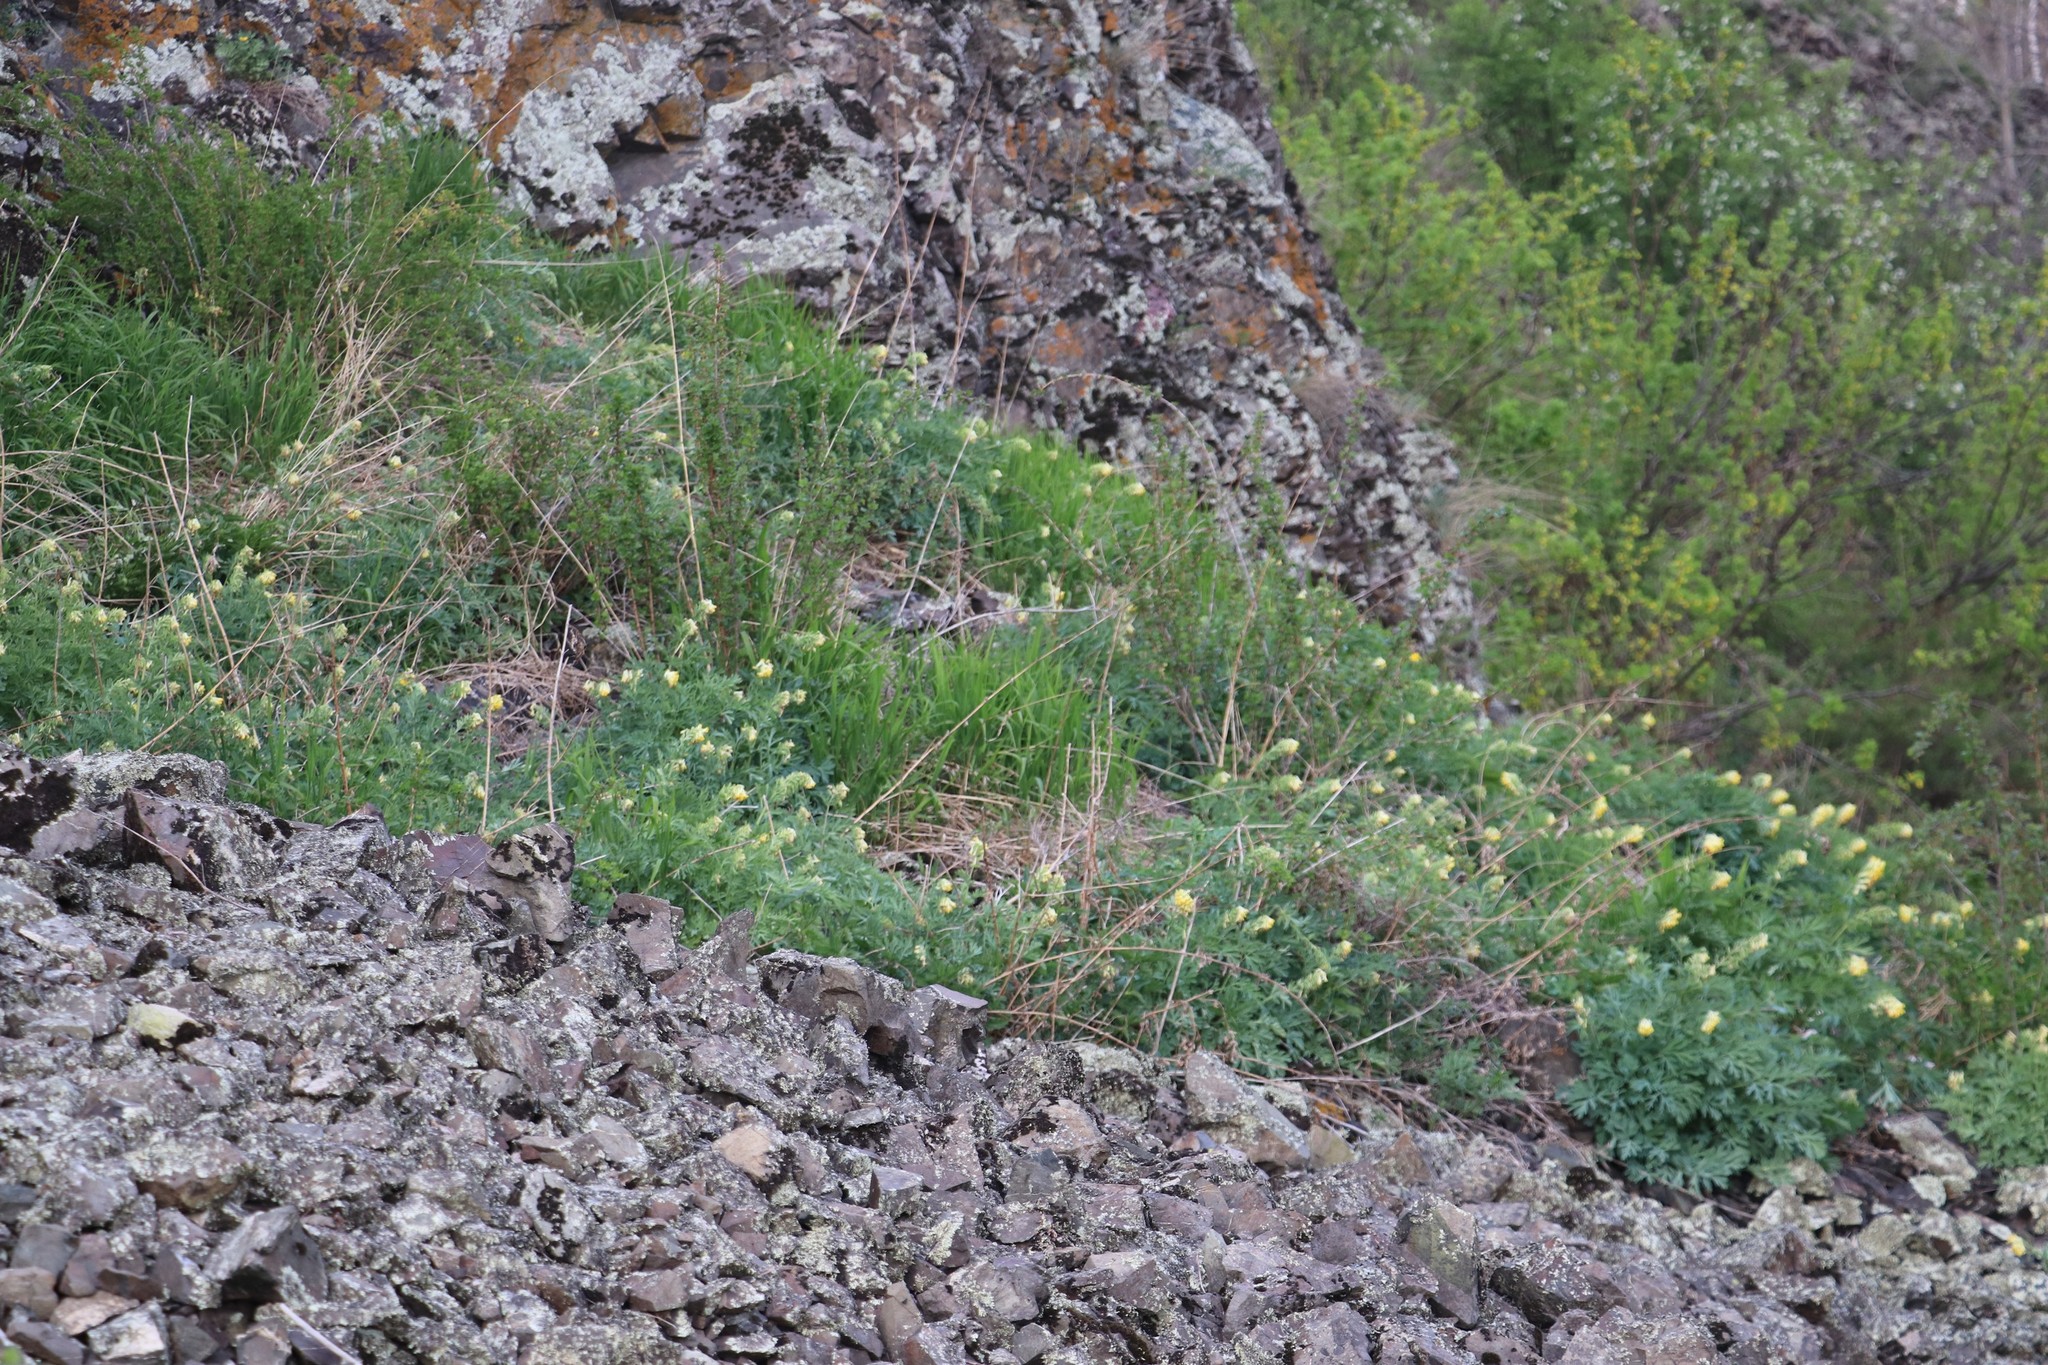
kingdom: Plantae
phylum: Tracheophyta
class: Magnoliopsida
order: Ranunculales
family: Papaveraceae
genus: Corydalis
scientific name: Corydalis nobilis
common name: Siberian corydalis
